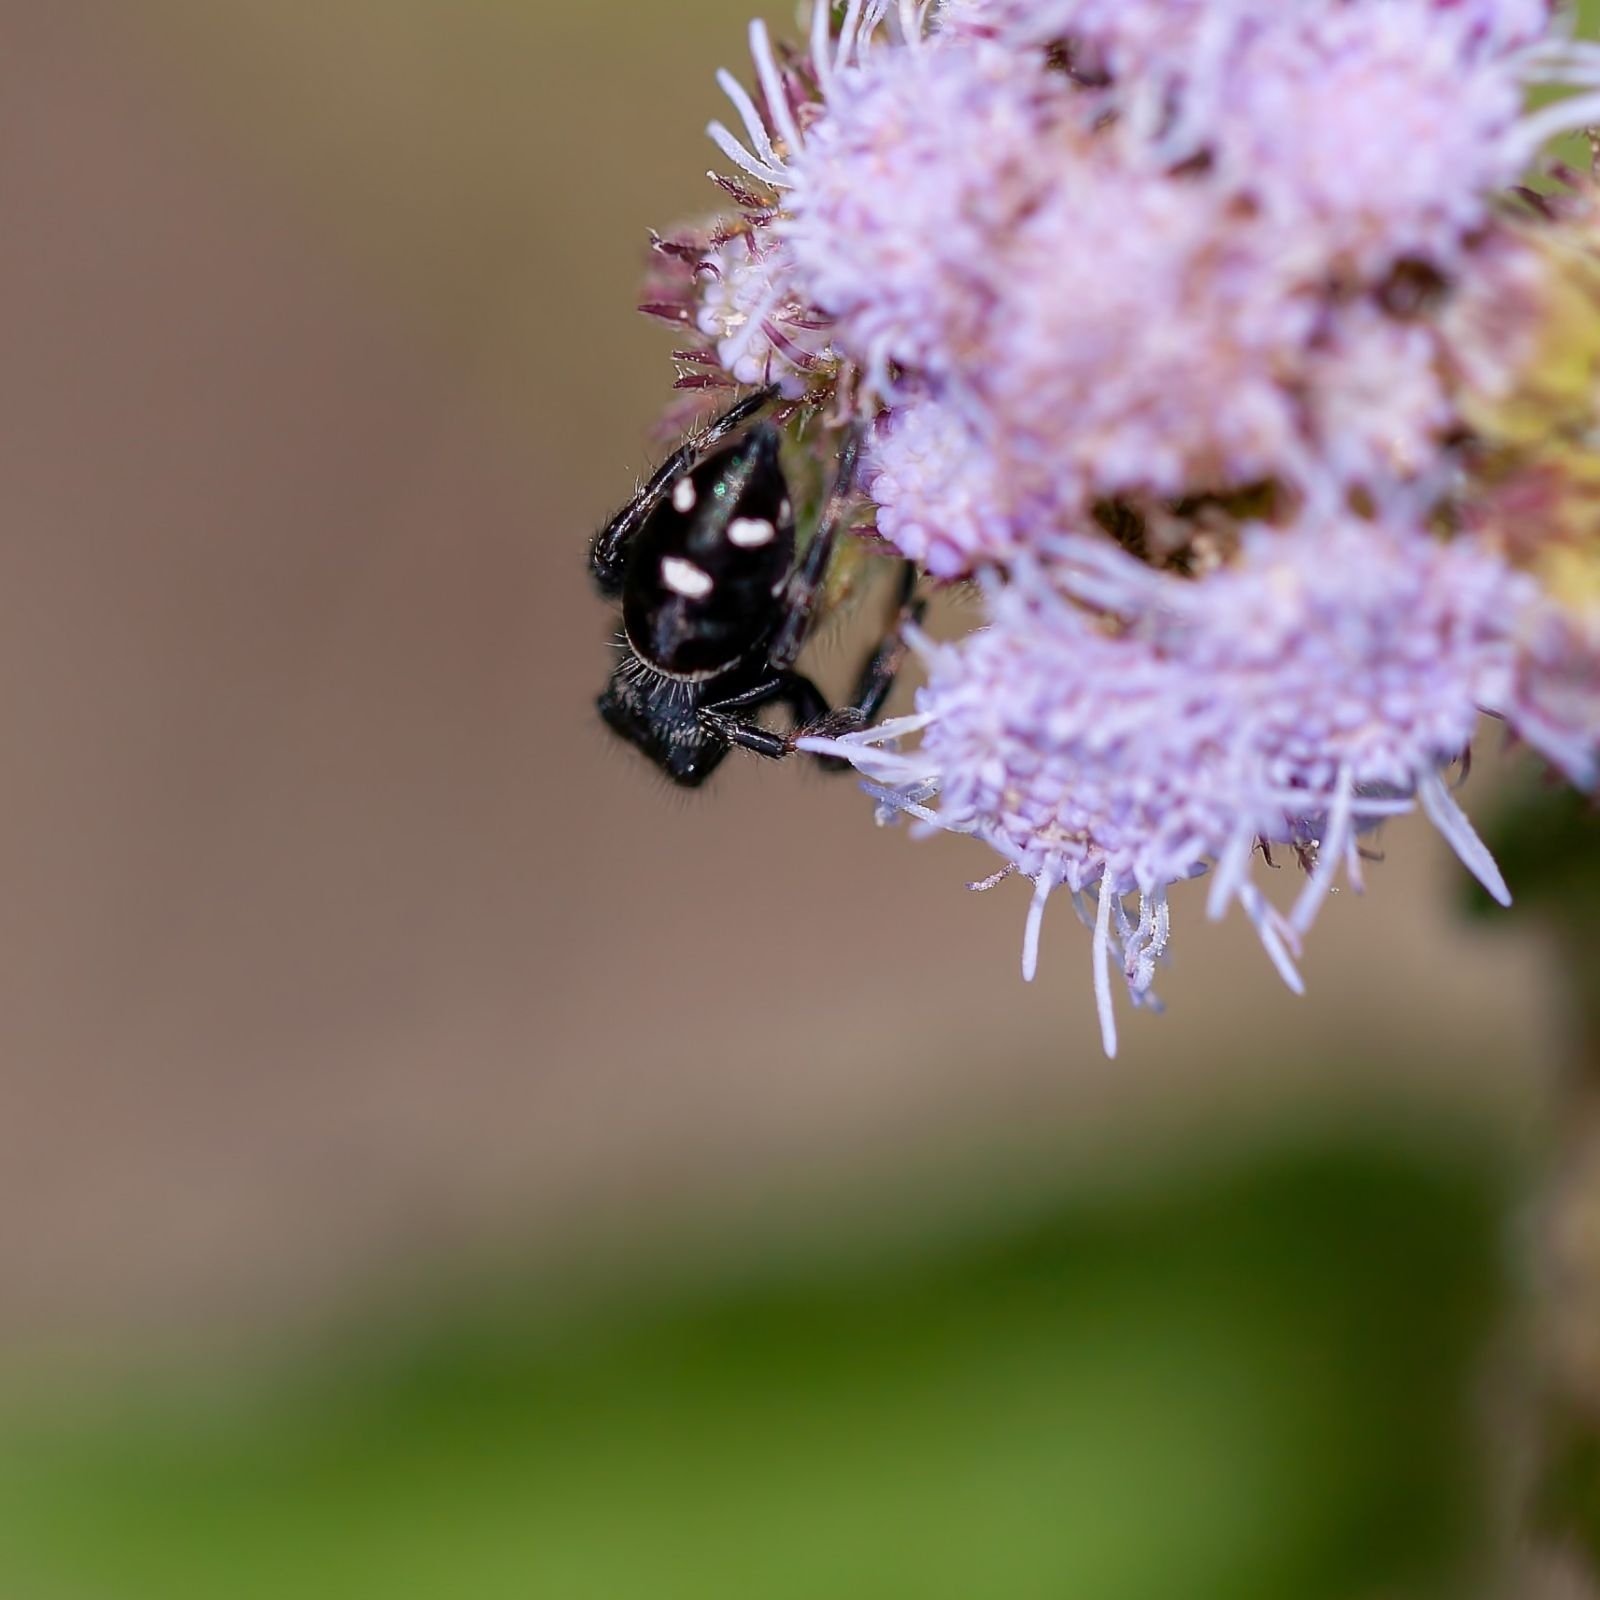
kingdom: Animalia
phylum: Arthropoda
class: Arachnida
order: Araneae
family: Salticidae
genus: Phidippus
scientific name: Phidippus regius
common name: Regal jumper
